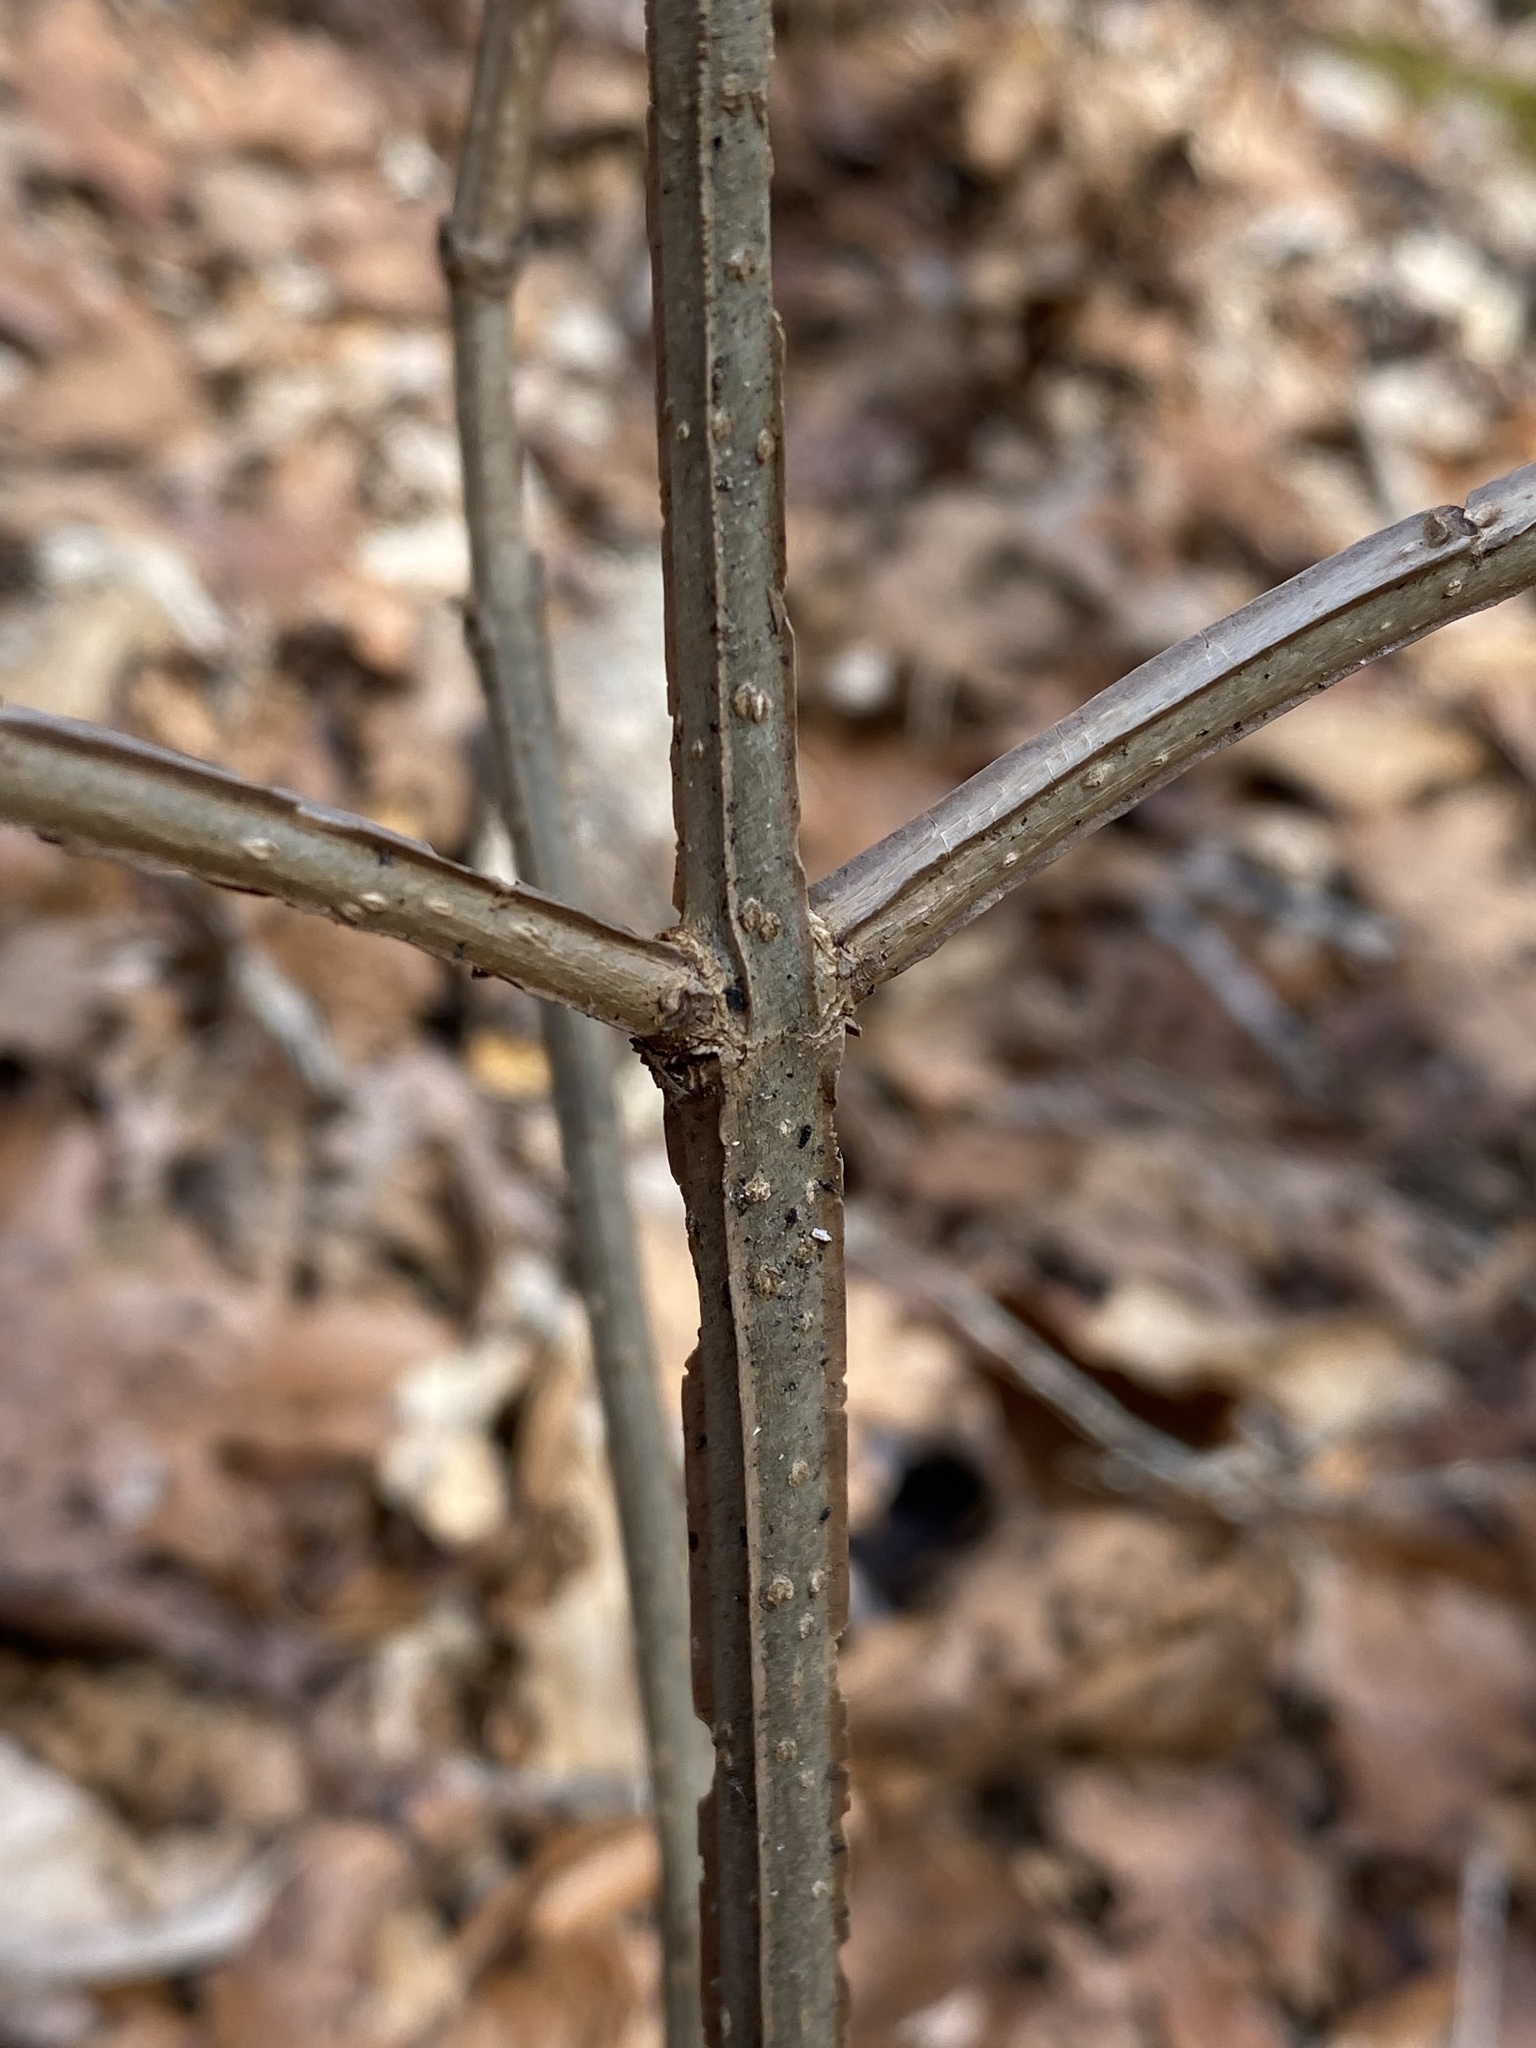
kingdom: Plantae
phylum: Tracheophyta
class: Magnoliopsida
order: Lamiales
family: Oleaceae
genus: Fraxinus
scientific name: Fraxinus quadrangulata
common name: Blue ash
